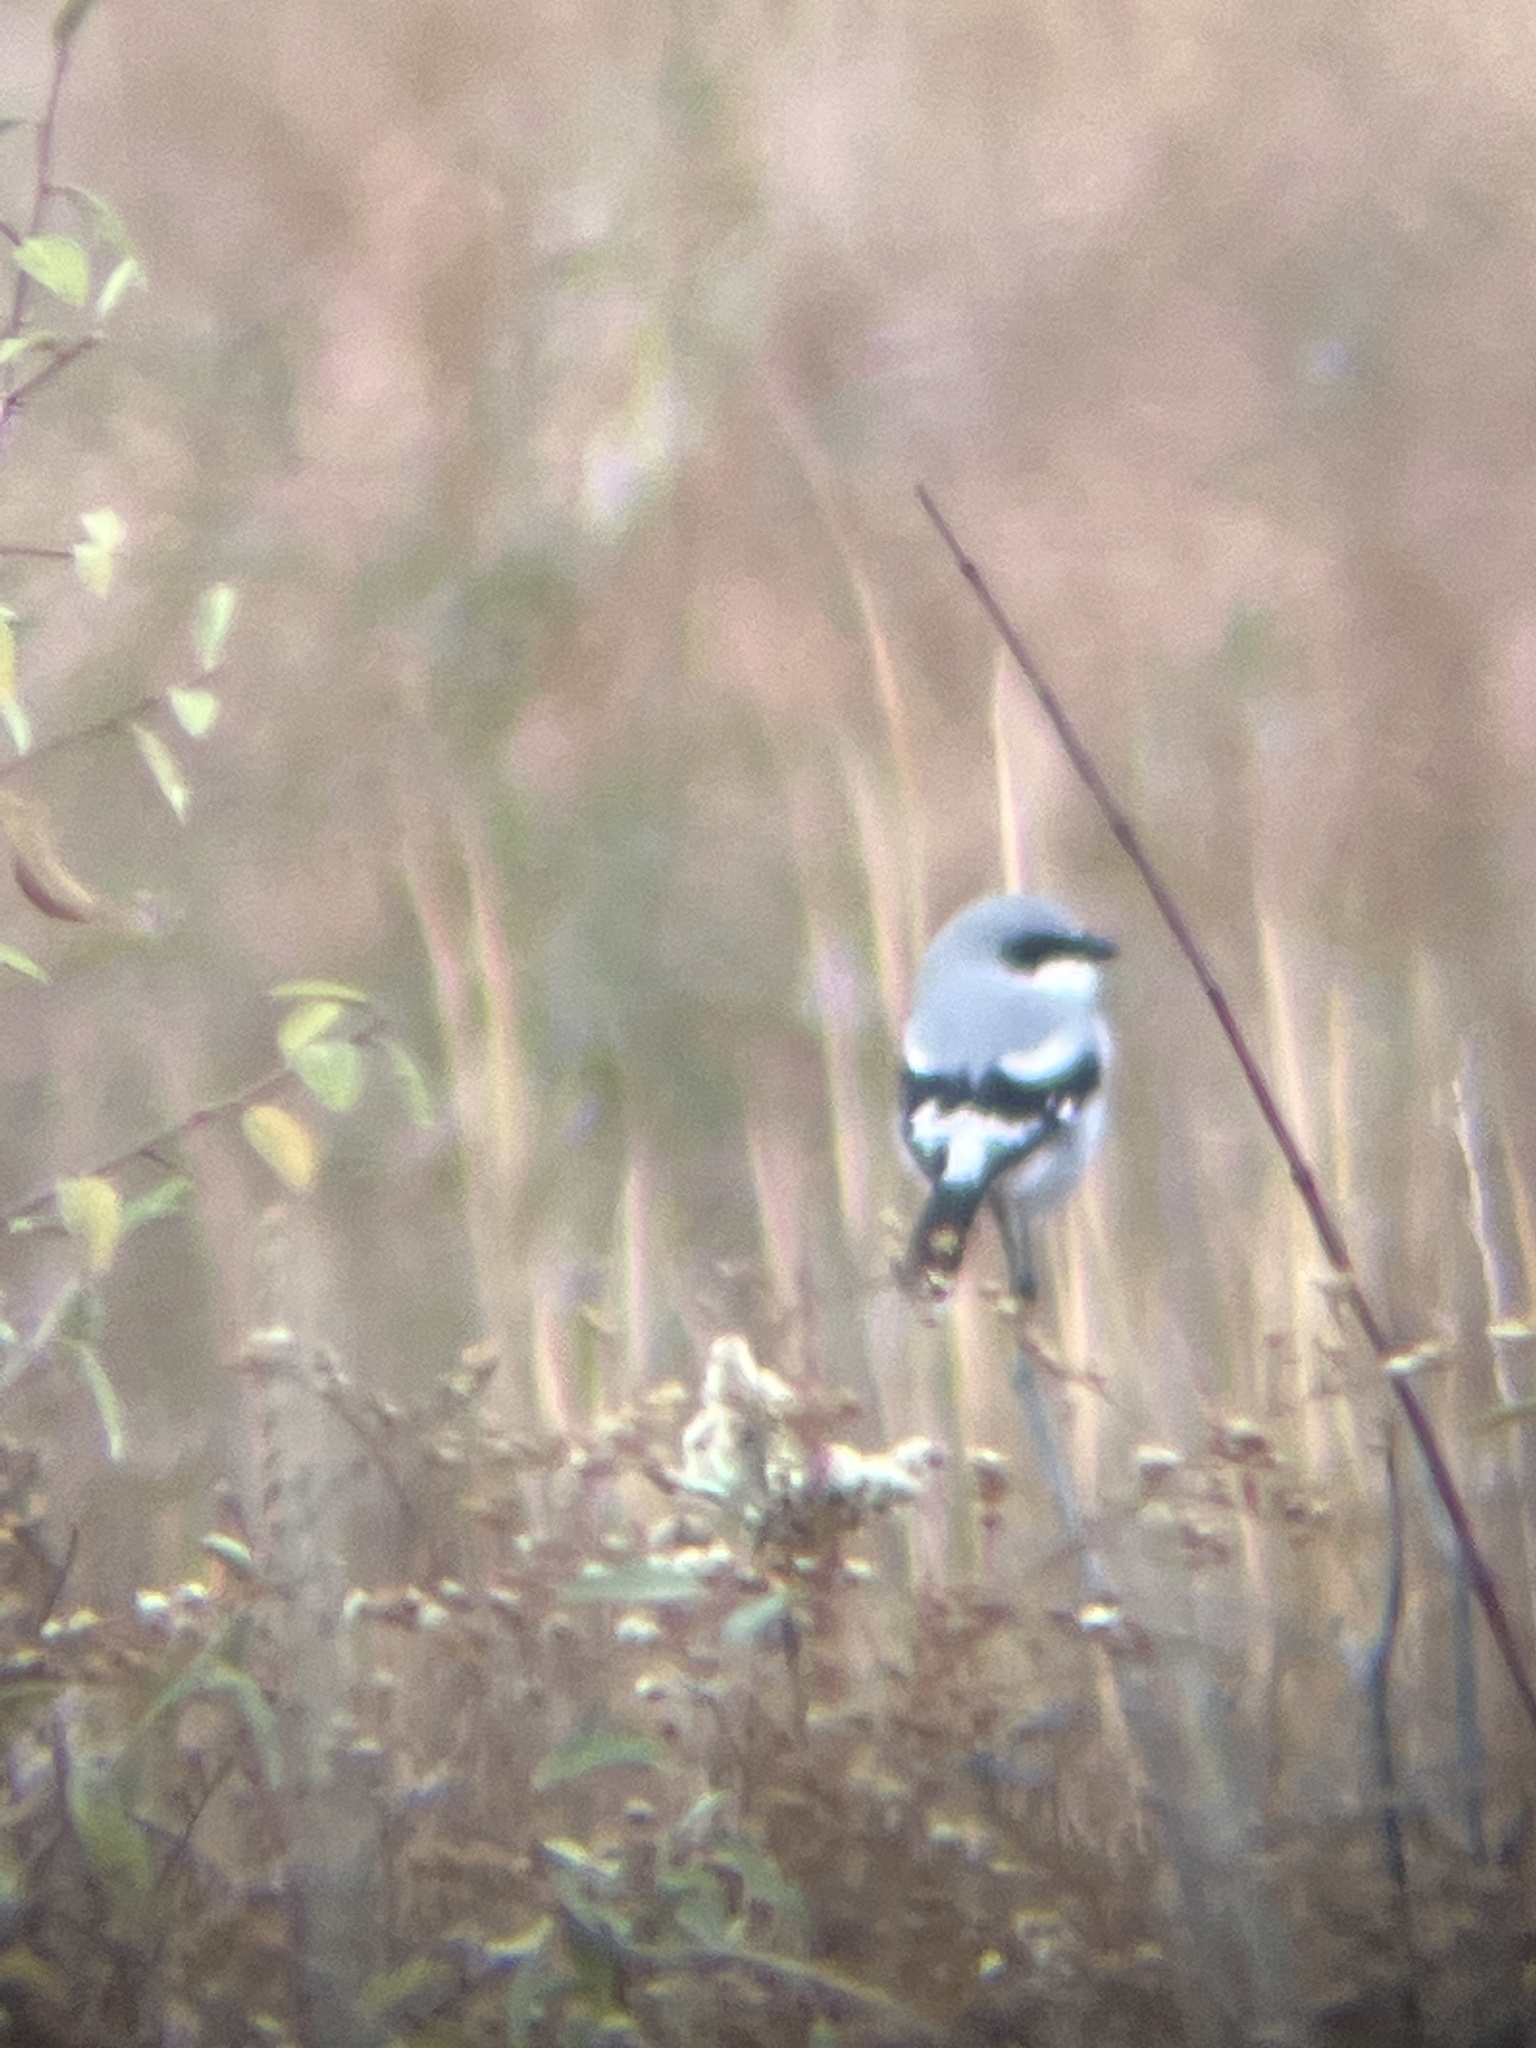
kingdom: Animalia
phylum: Chordata
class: Aves
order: Passeriformes
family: Laniidae
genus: Lanius
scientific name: Lanius ludovicianus
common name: Loggerhead shrike
